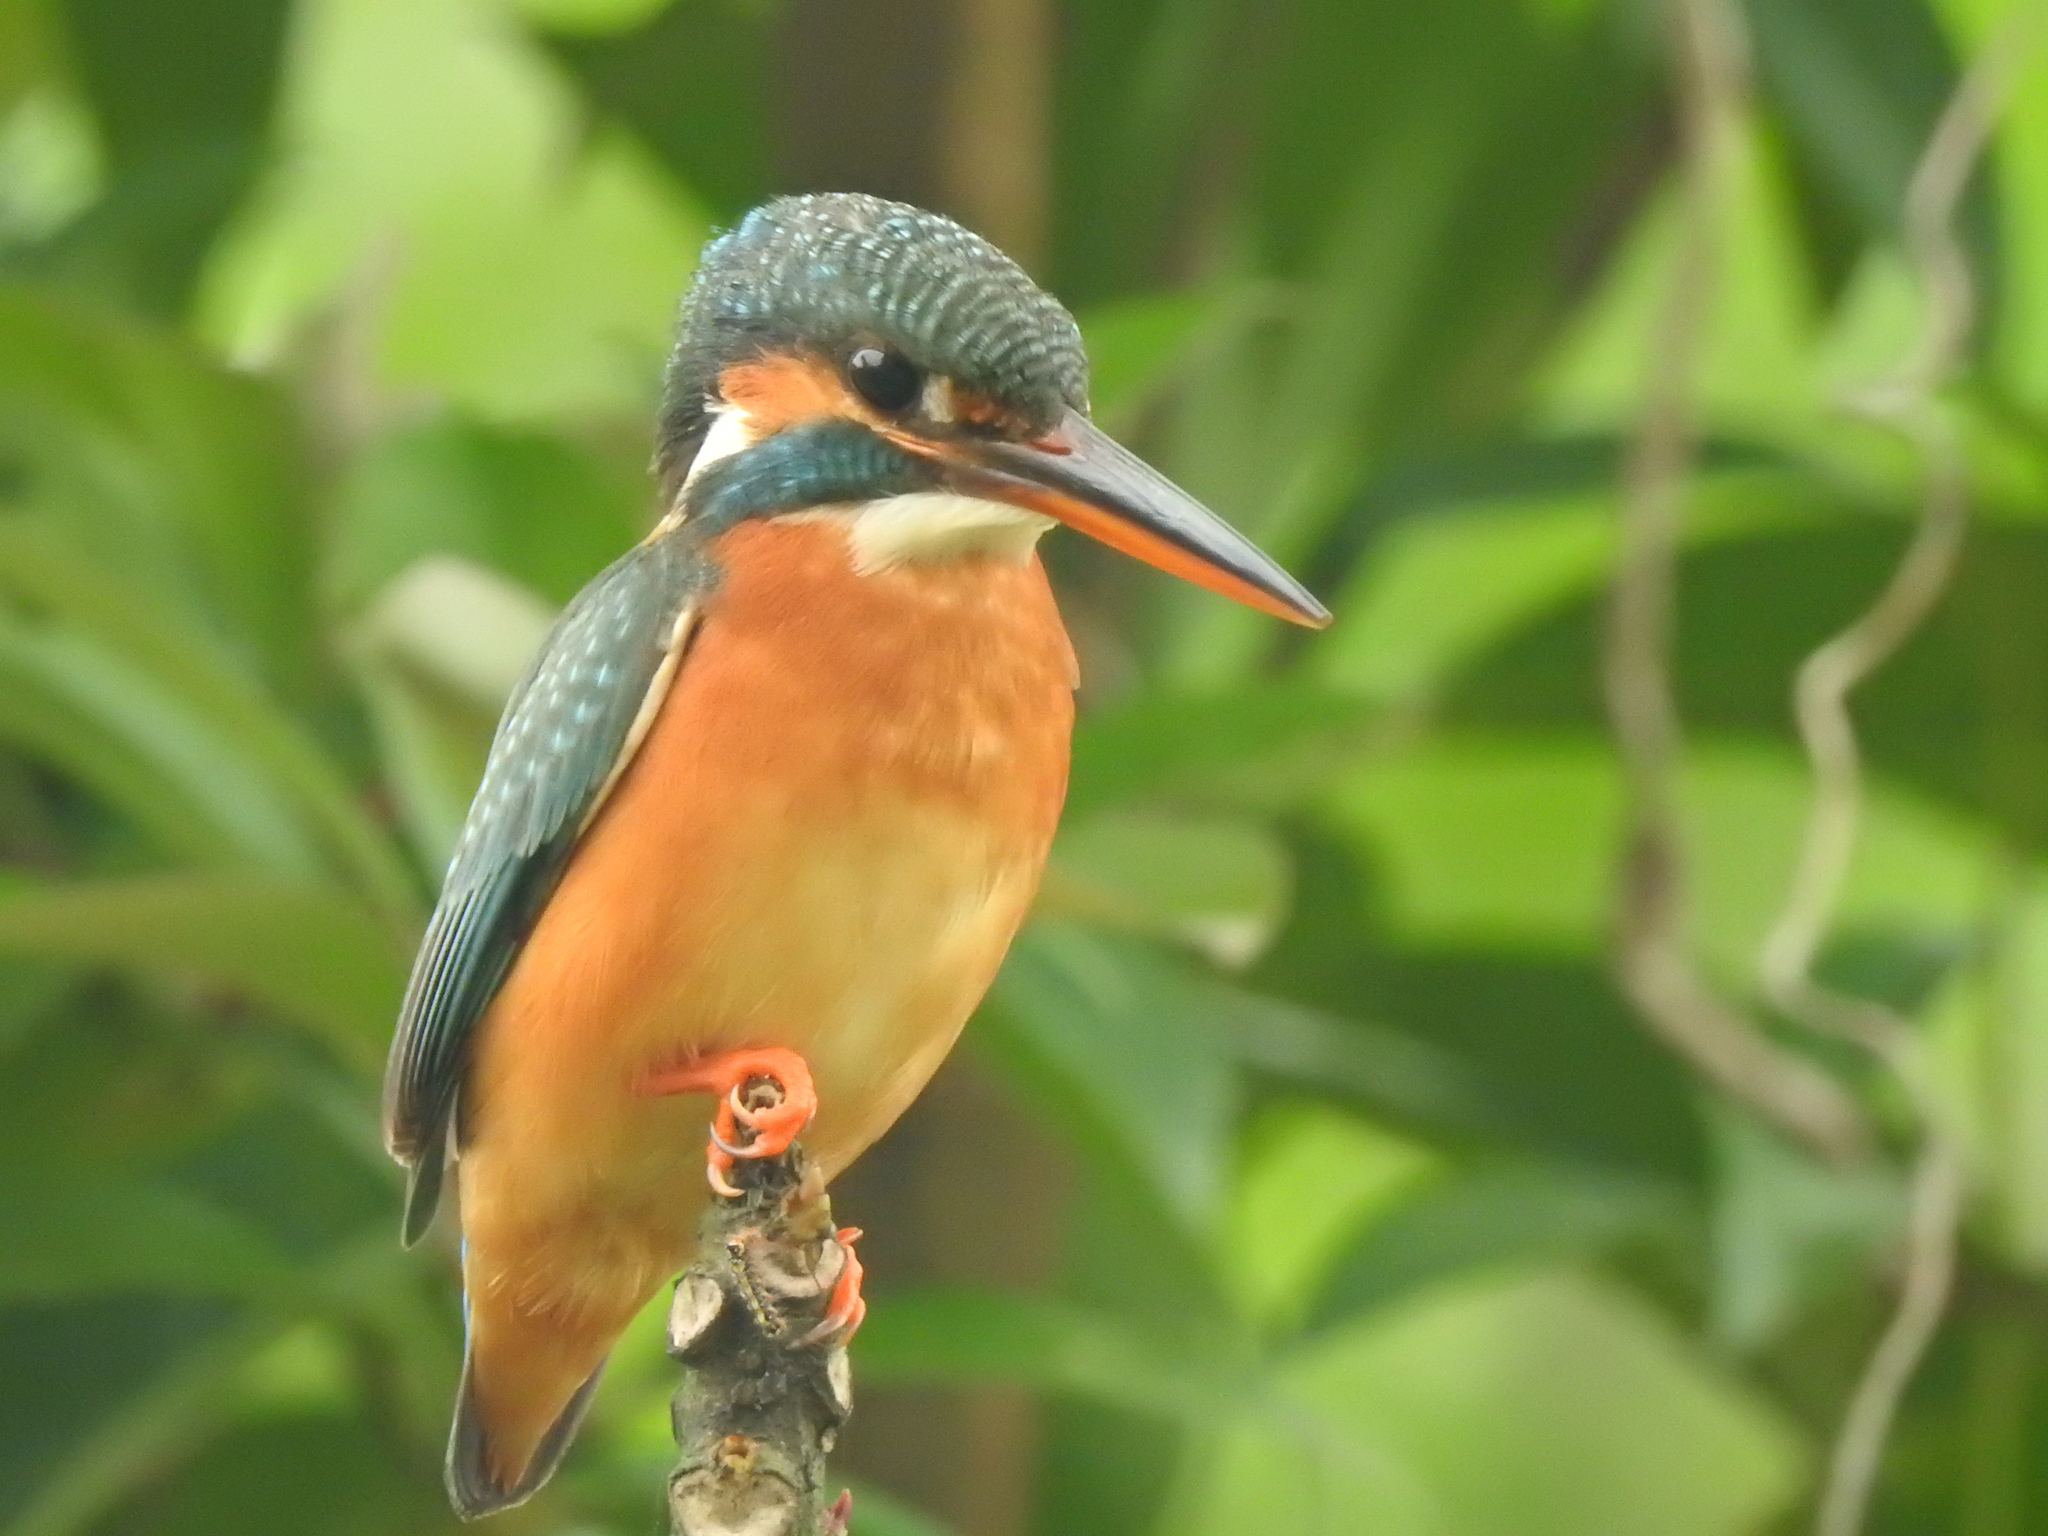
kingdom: Animalia
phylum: Chordata
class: Aves
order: Coraciiformes
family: Alcedinidae
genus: Alcedo
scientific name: Alcedo atthis
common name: Common kingfisher
